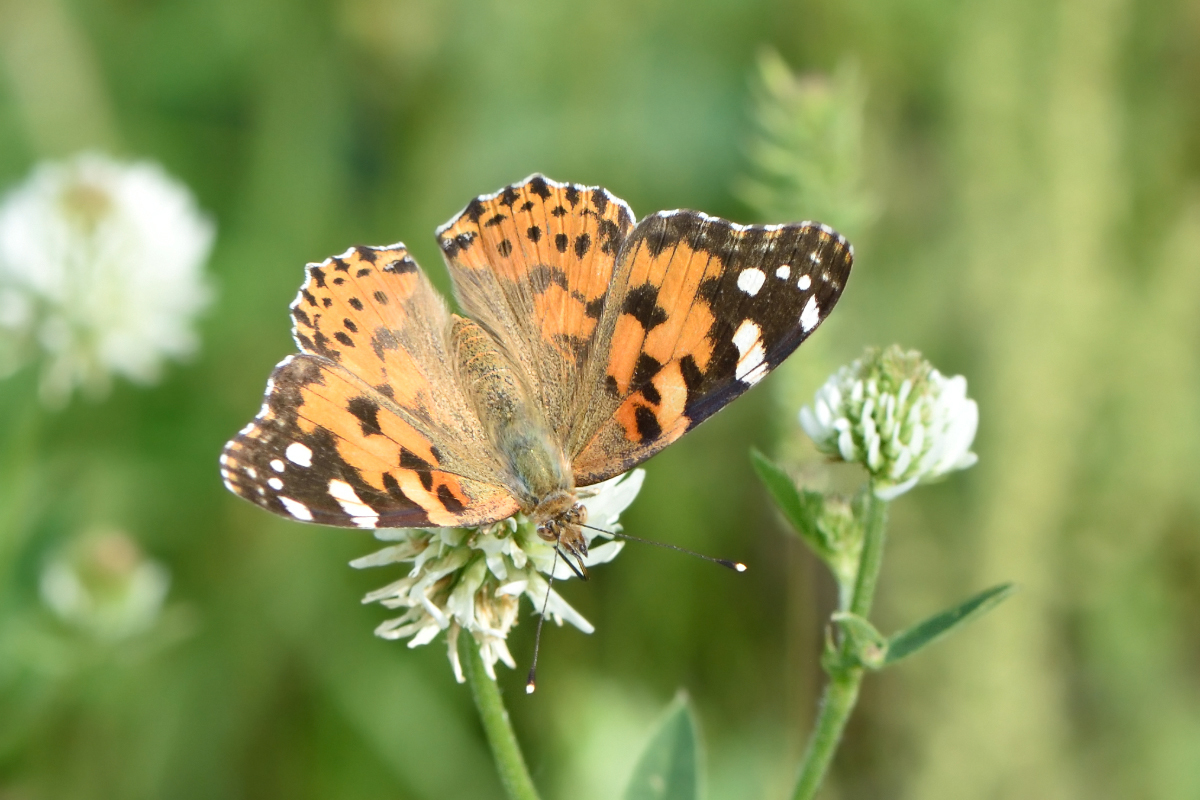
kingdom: Animalia
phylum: Arthropoda
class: Insecta
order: Lepidoptera
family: Nymphalidae
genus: Vanessa
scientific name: Vanessa cardui
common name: Painted lady
